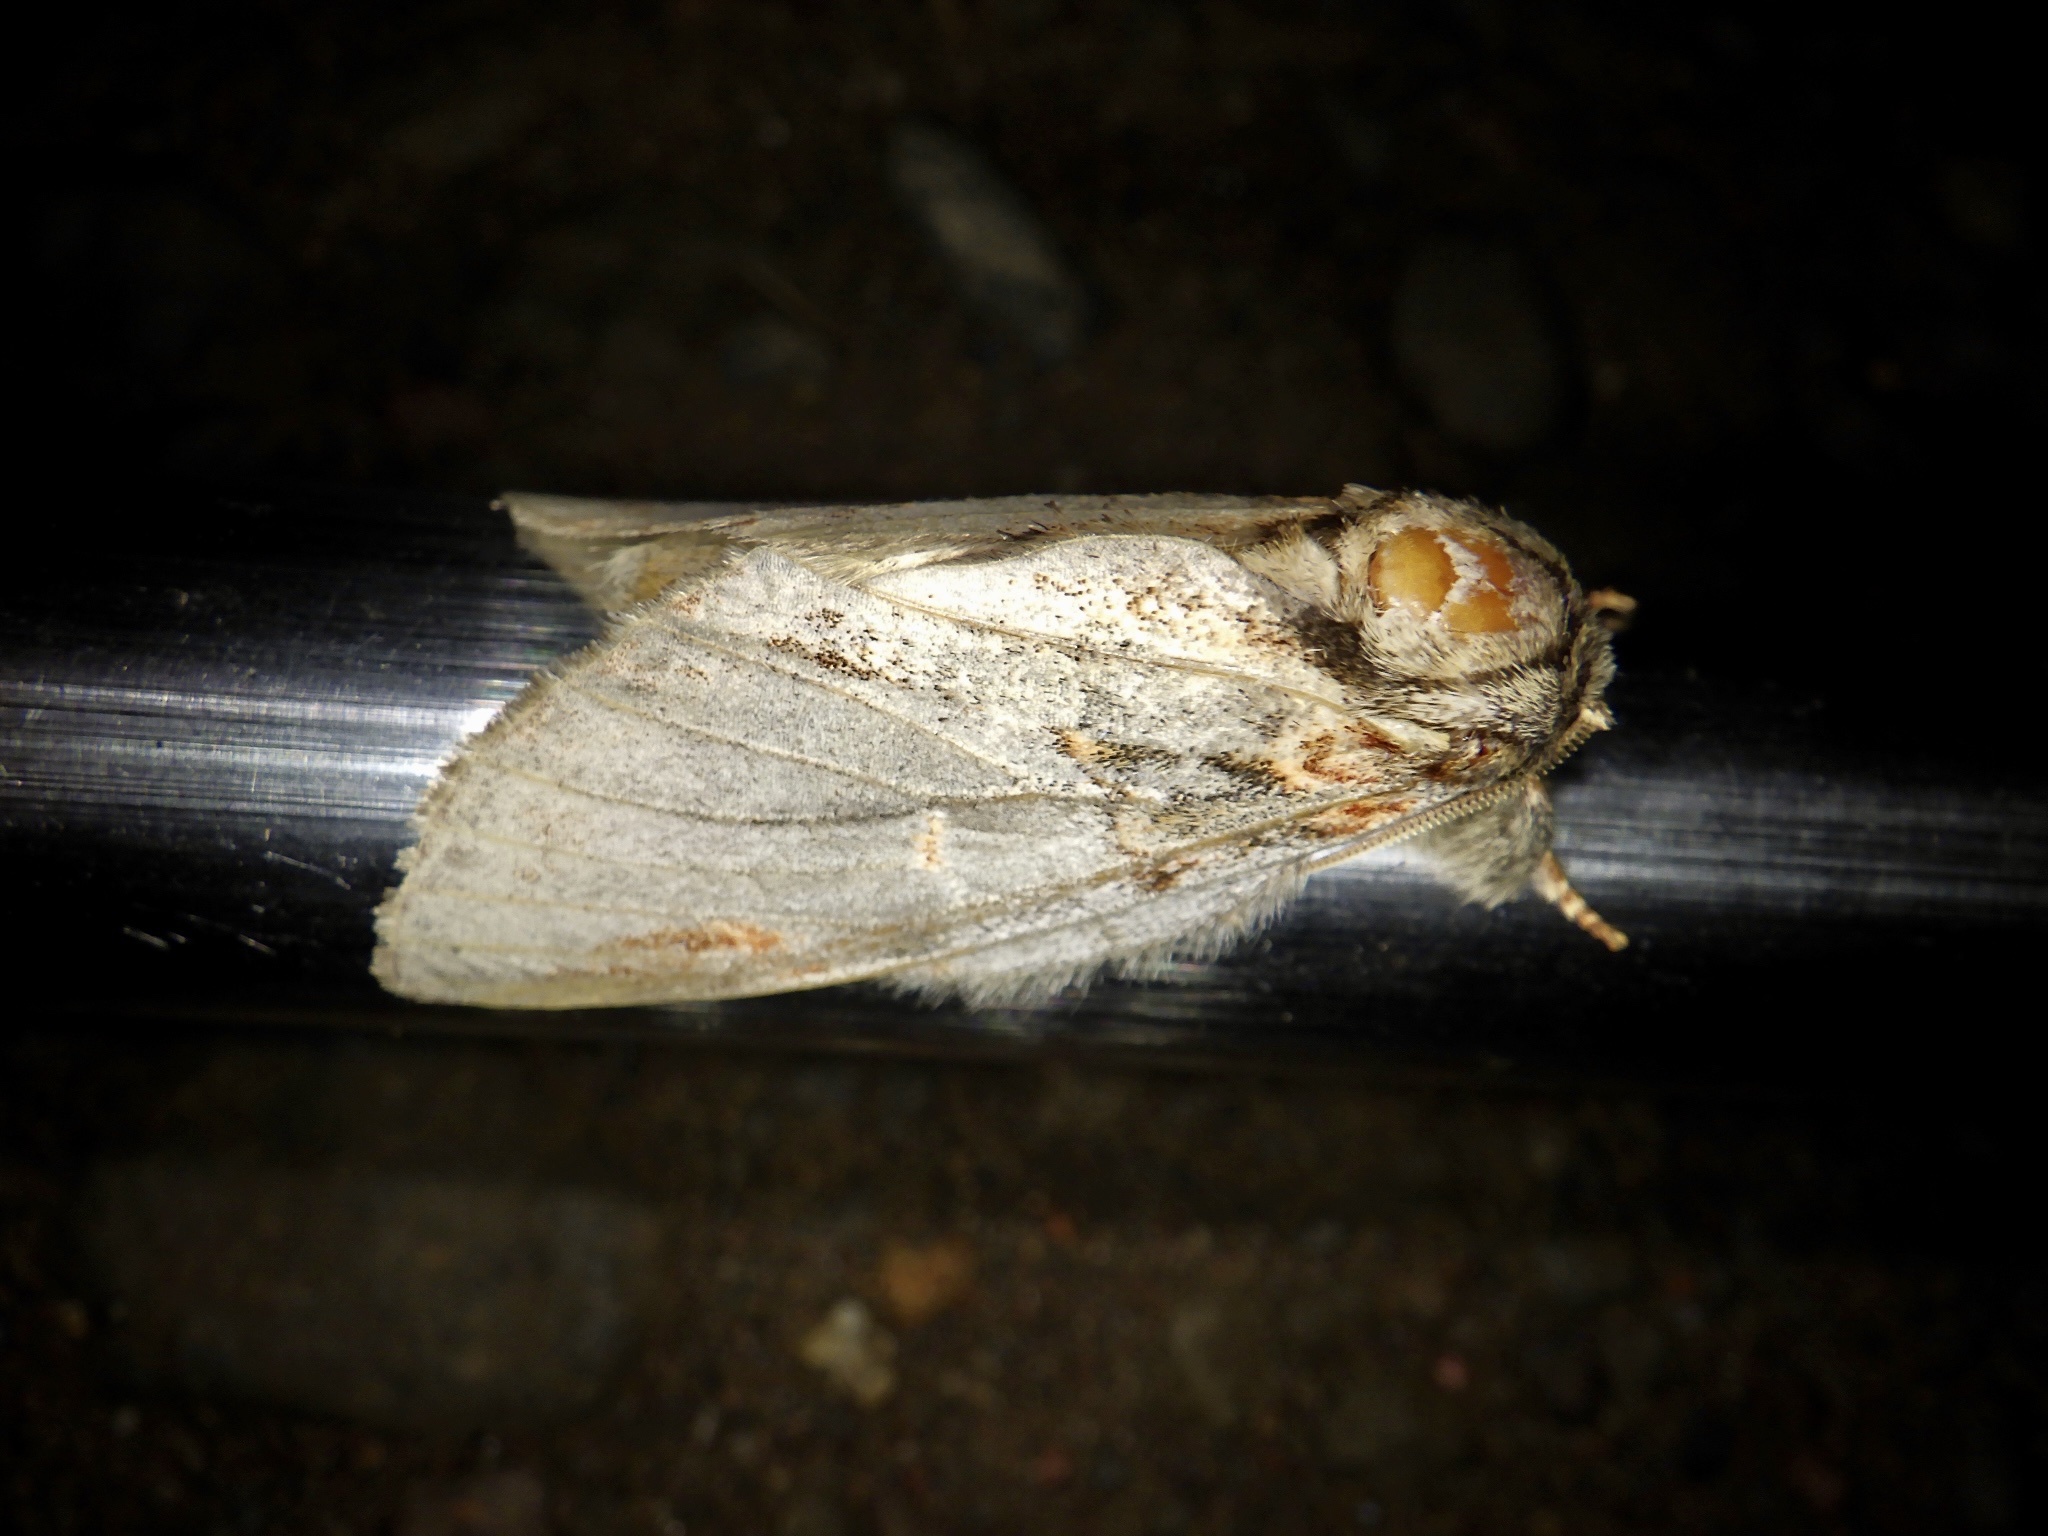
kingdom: Animalia
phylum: Arthropoda
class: Insecta
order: Lepidoptera
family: Notodontidae
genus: Peridea
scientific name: Peridea graeseri
